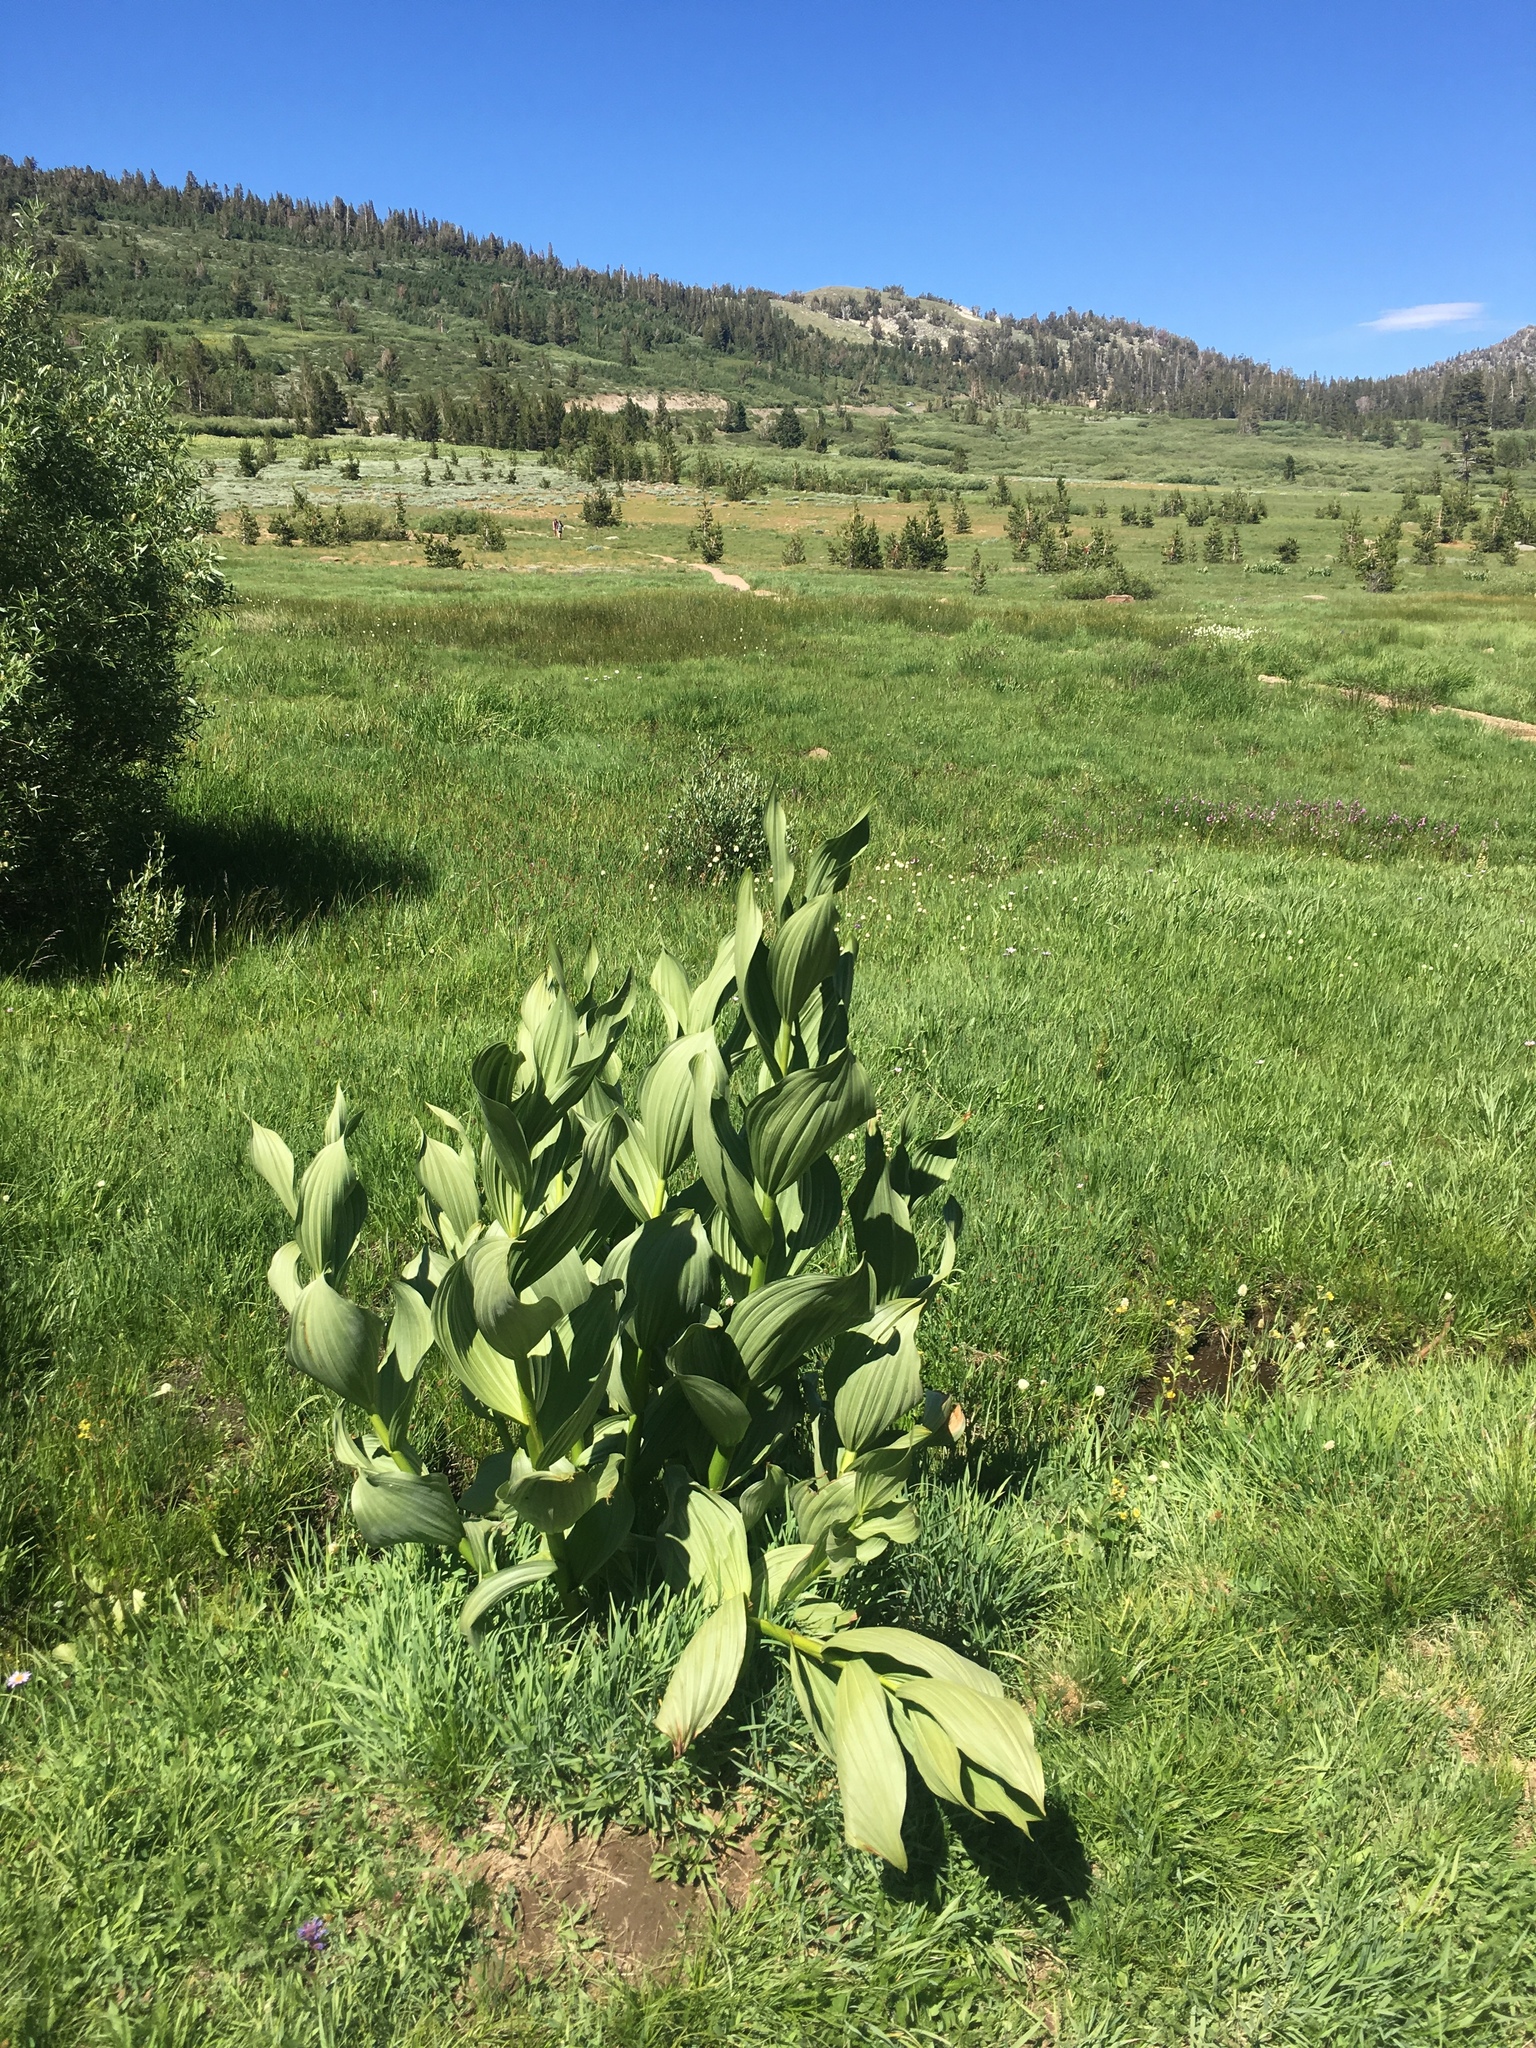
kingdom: Plantae
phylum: Tracheophyta
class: Liliopsida
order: Liliales
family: Melanthiaceae
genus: Veratrum
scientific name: Veratrum californicum
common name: California veratrum
